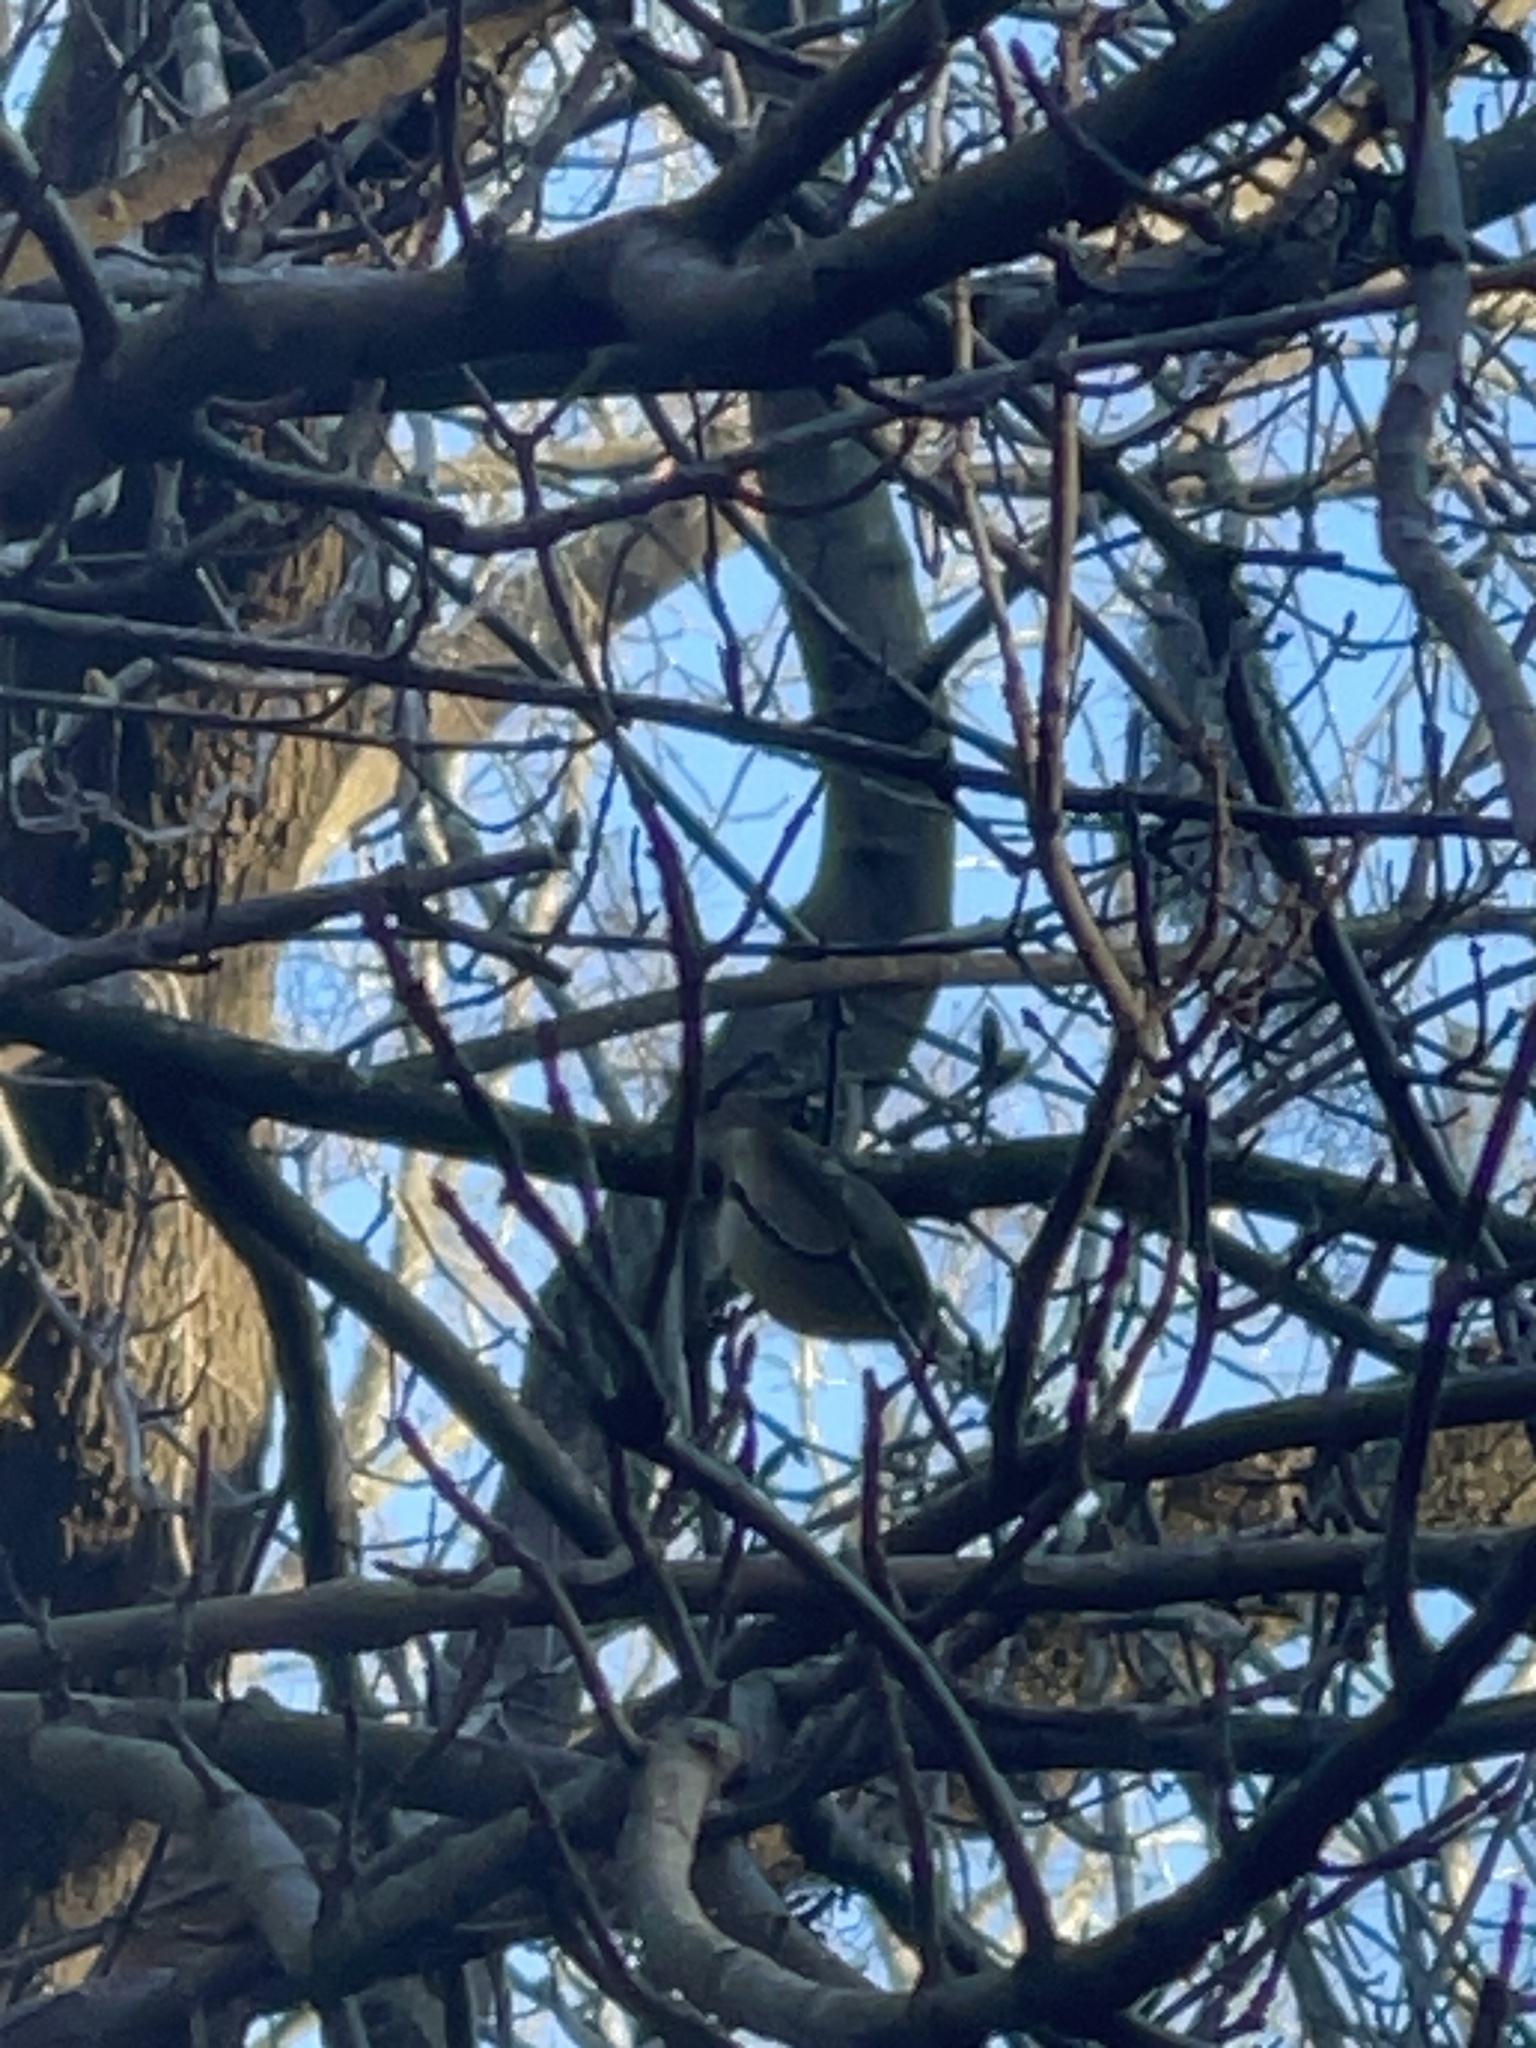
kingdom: Animalia
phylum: Chordata
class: Aves
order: Passeriformes
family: Regulidae
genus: Regulus
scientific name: Regulus calendula
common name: Ruby-crowned kinglet
